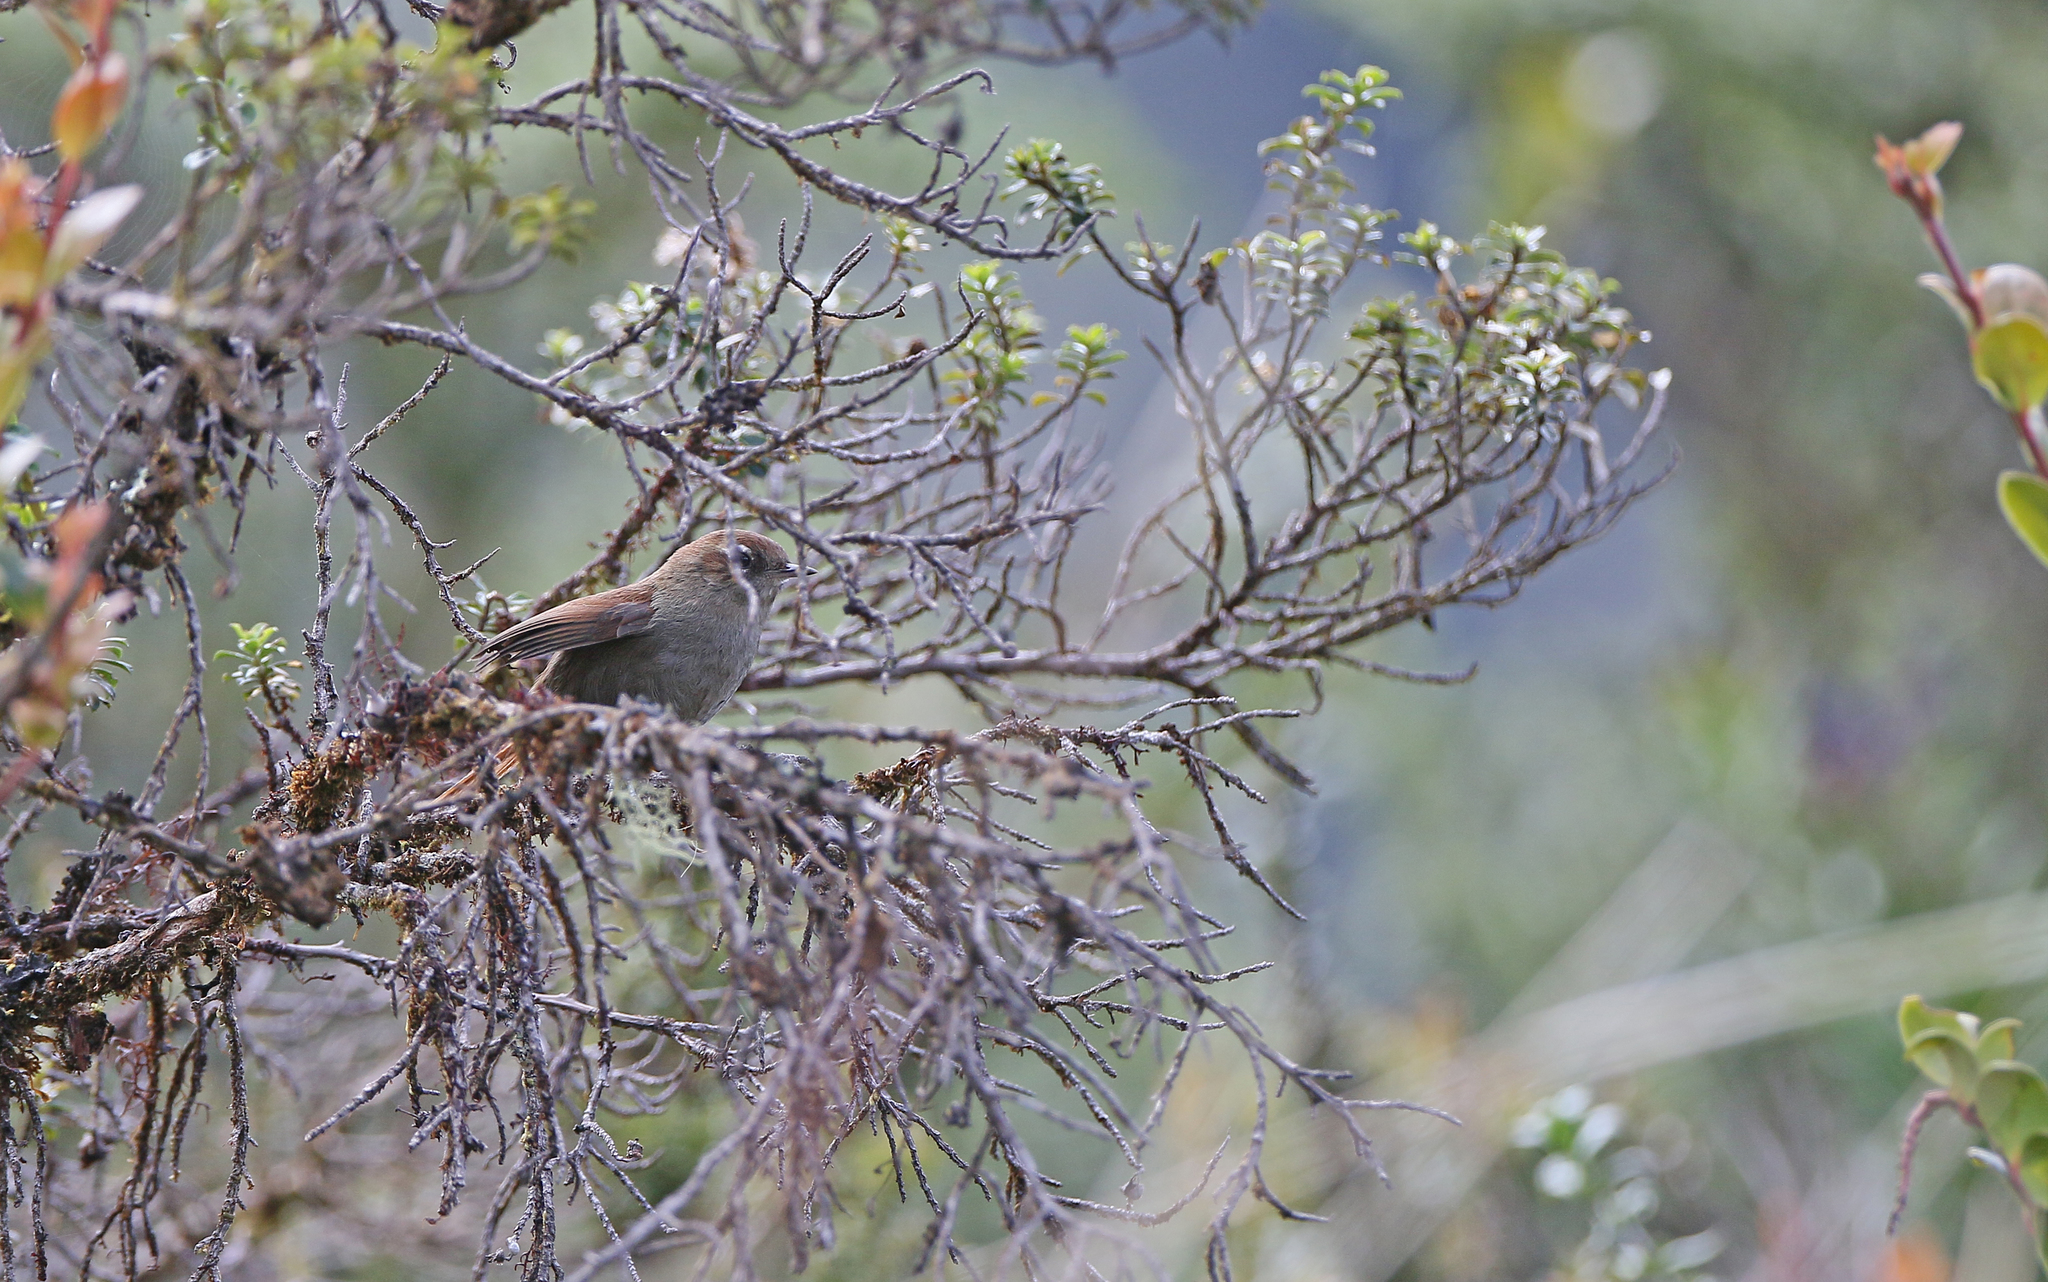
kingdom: Animalia
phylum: Chordata
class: Aves
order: Passeriformes
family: Furnariidae
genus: Schizoeaca
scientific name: Schizoeaca fuliginosa
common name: White-chinned thistletail
